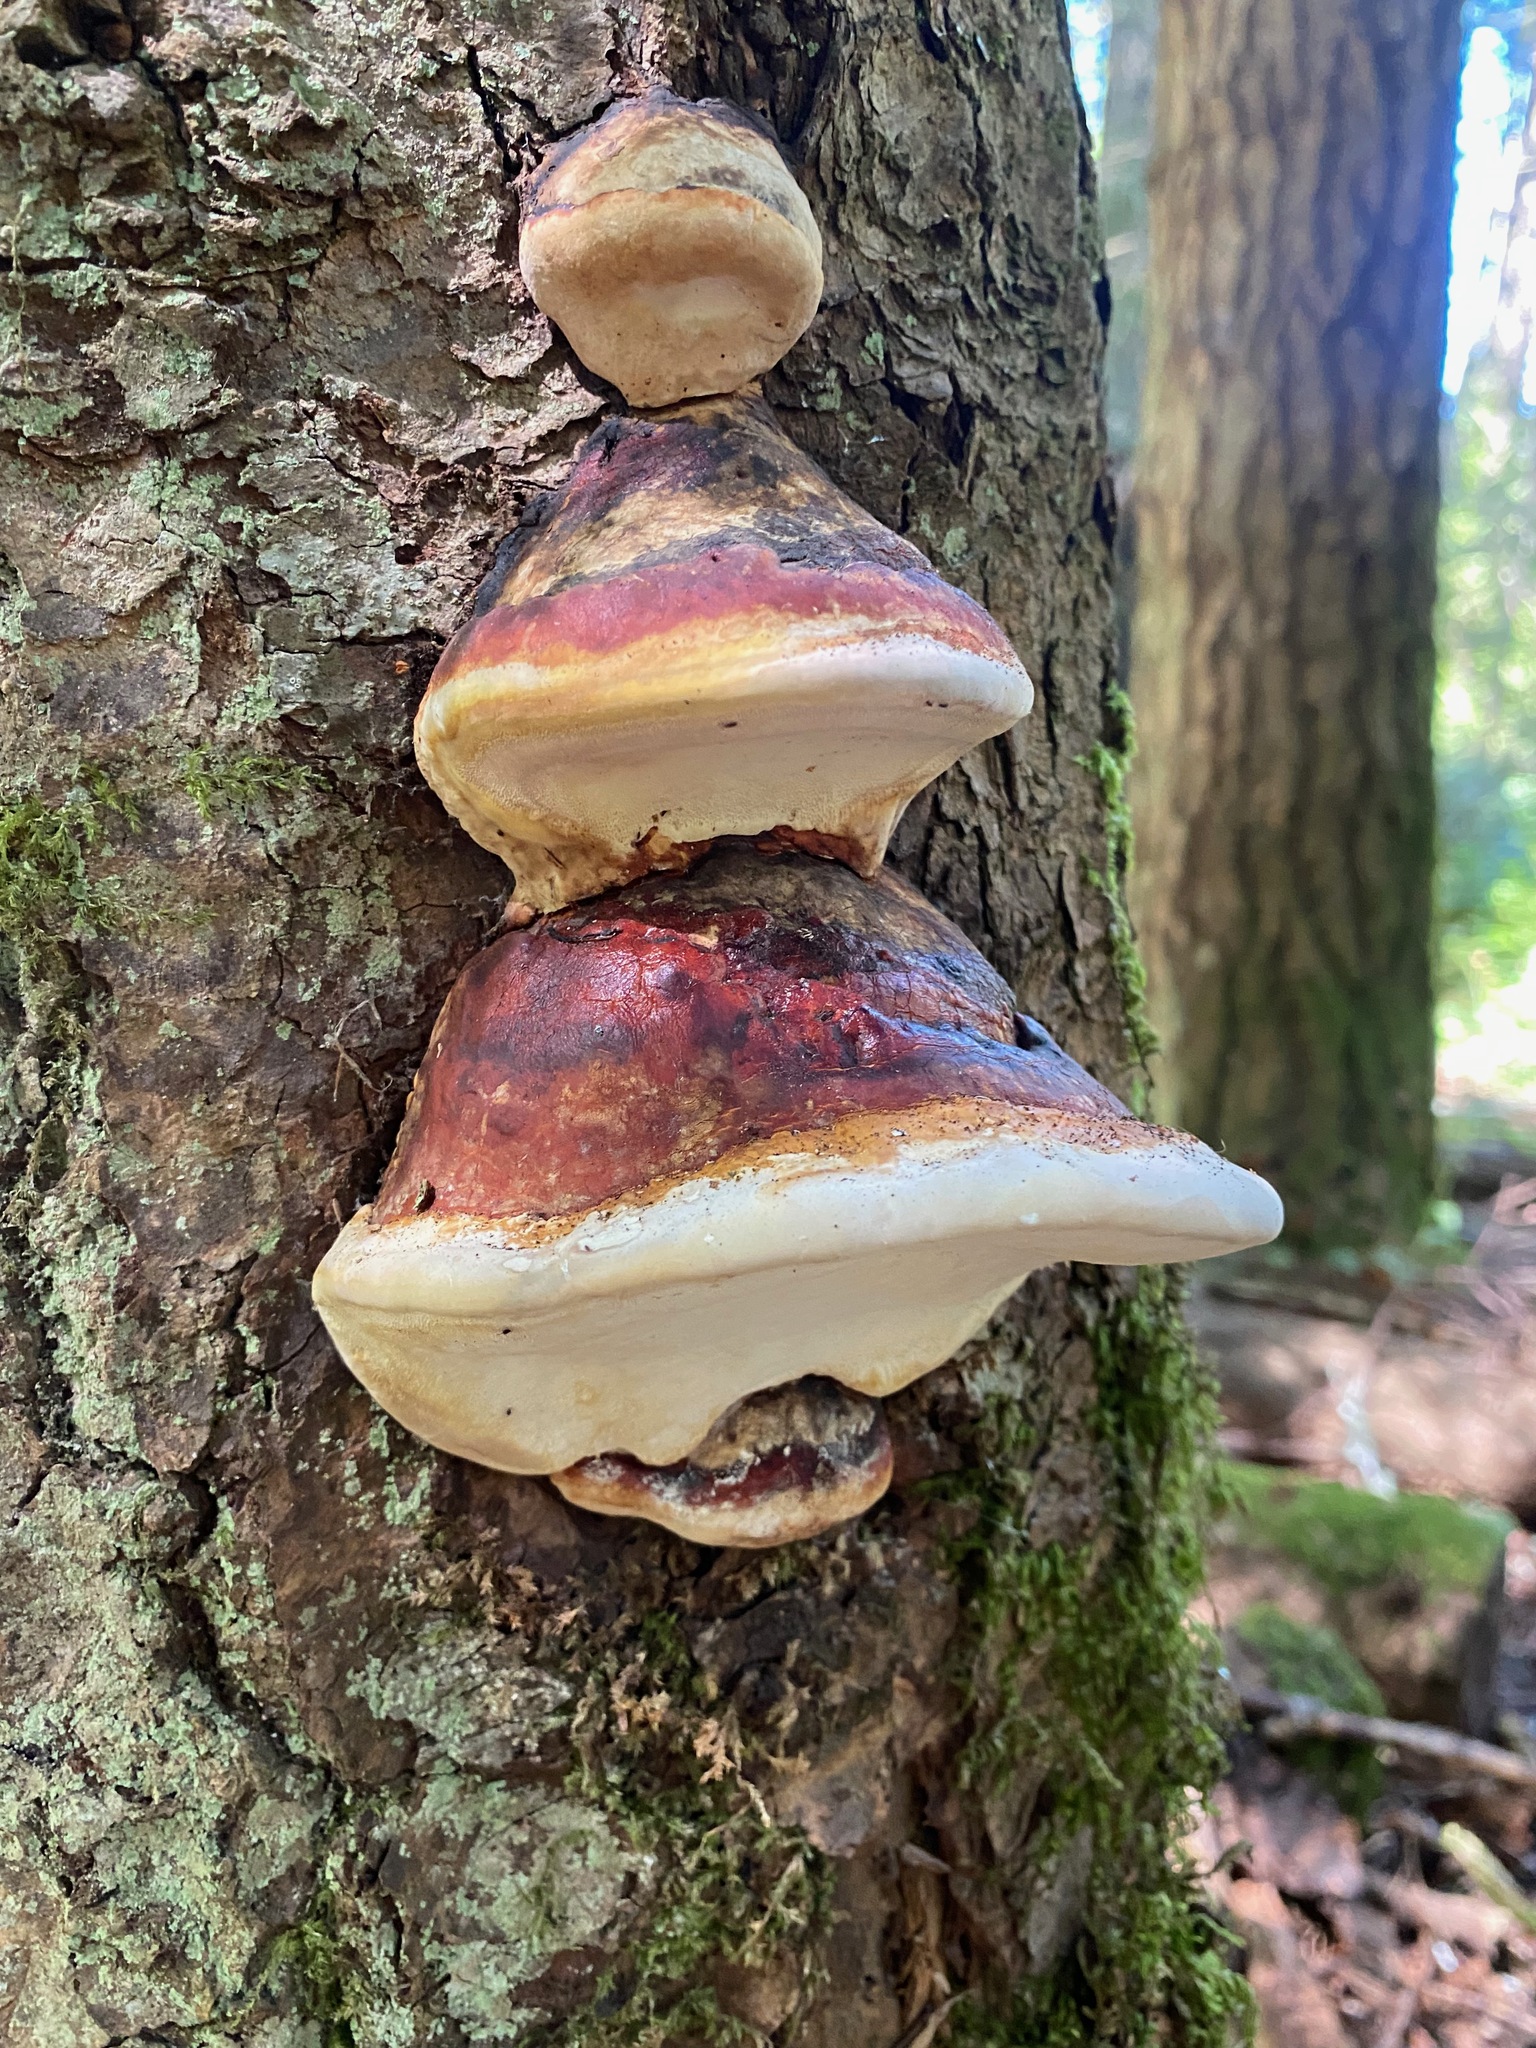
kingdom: Fungi
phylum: Basidiomycota
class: Agaricomycetes
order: Polyporales
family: Fomitopsidaceae
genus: Fomitopsis
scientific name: Fomitopsis mounceae
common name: Northern red belt
